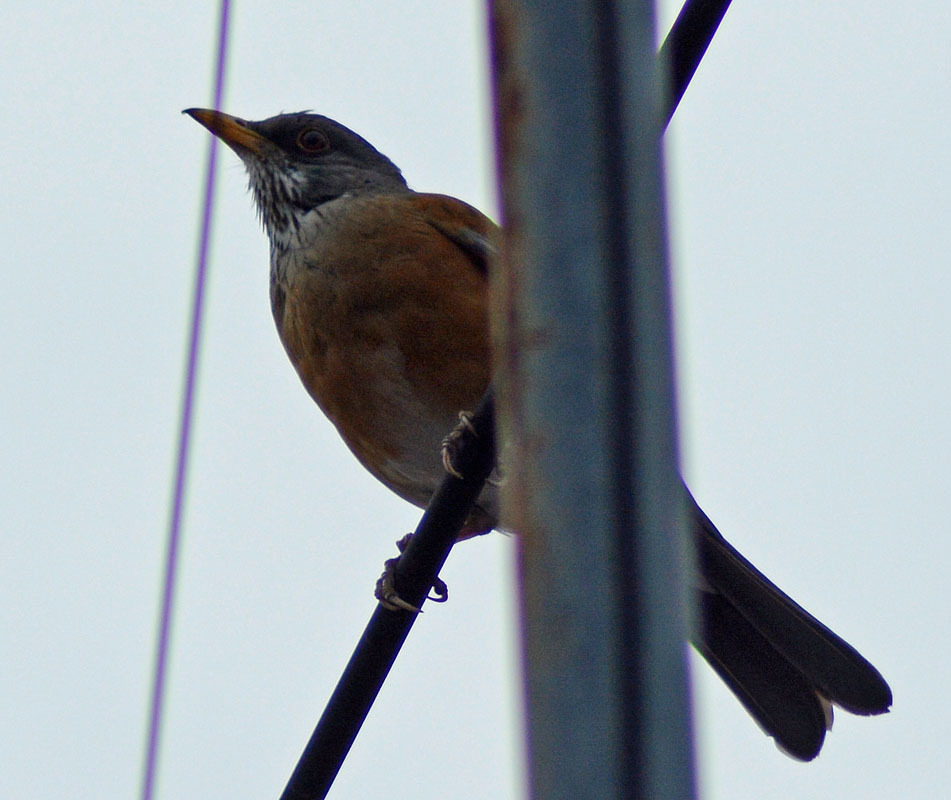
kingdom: Animalia
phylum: Chordata
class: Aves
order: Passeriformes
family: Turdidae
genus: Turdus
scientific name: Turdus rufopalliatus
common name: Rufous-backed robin
